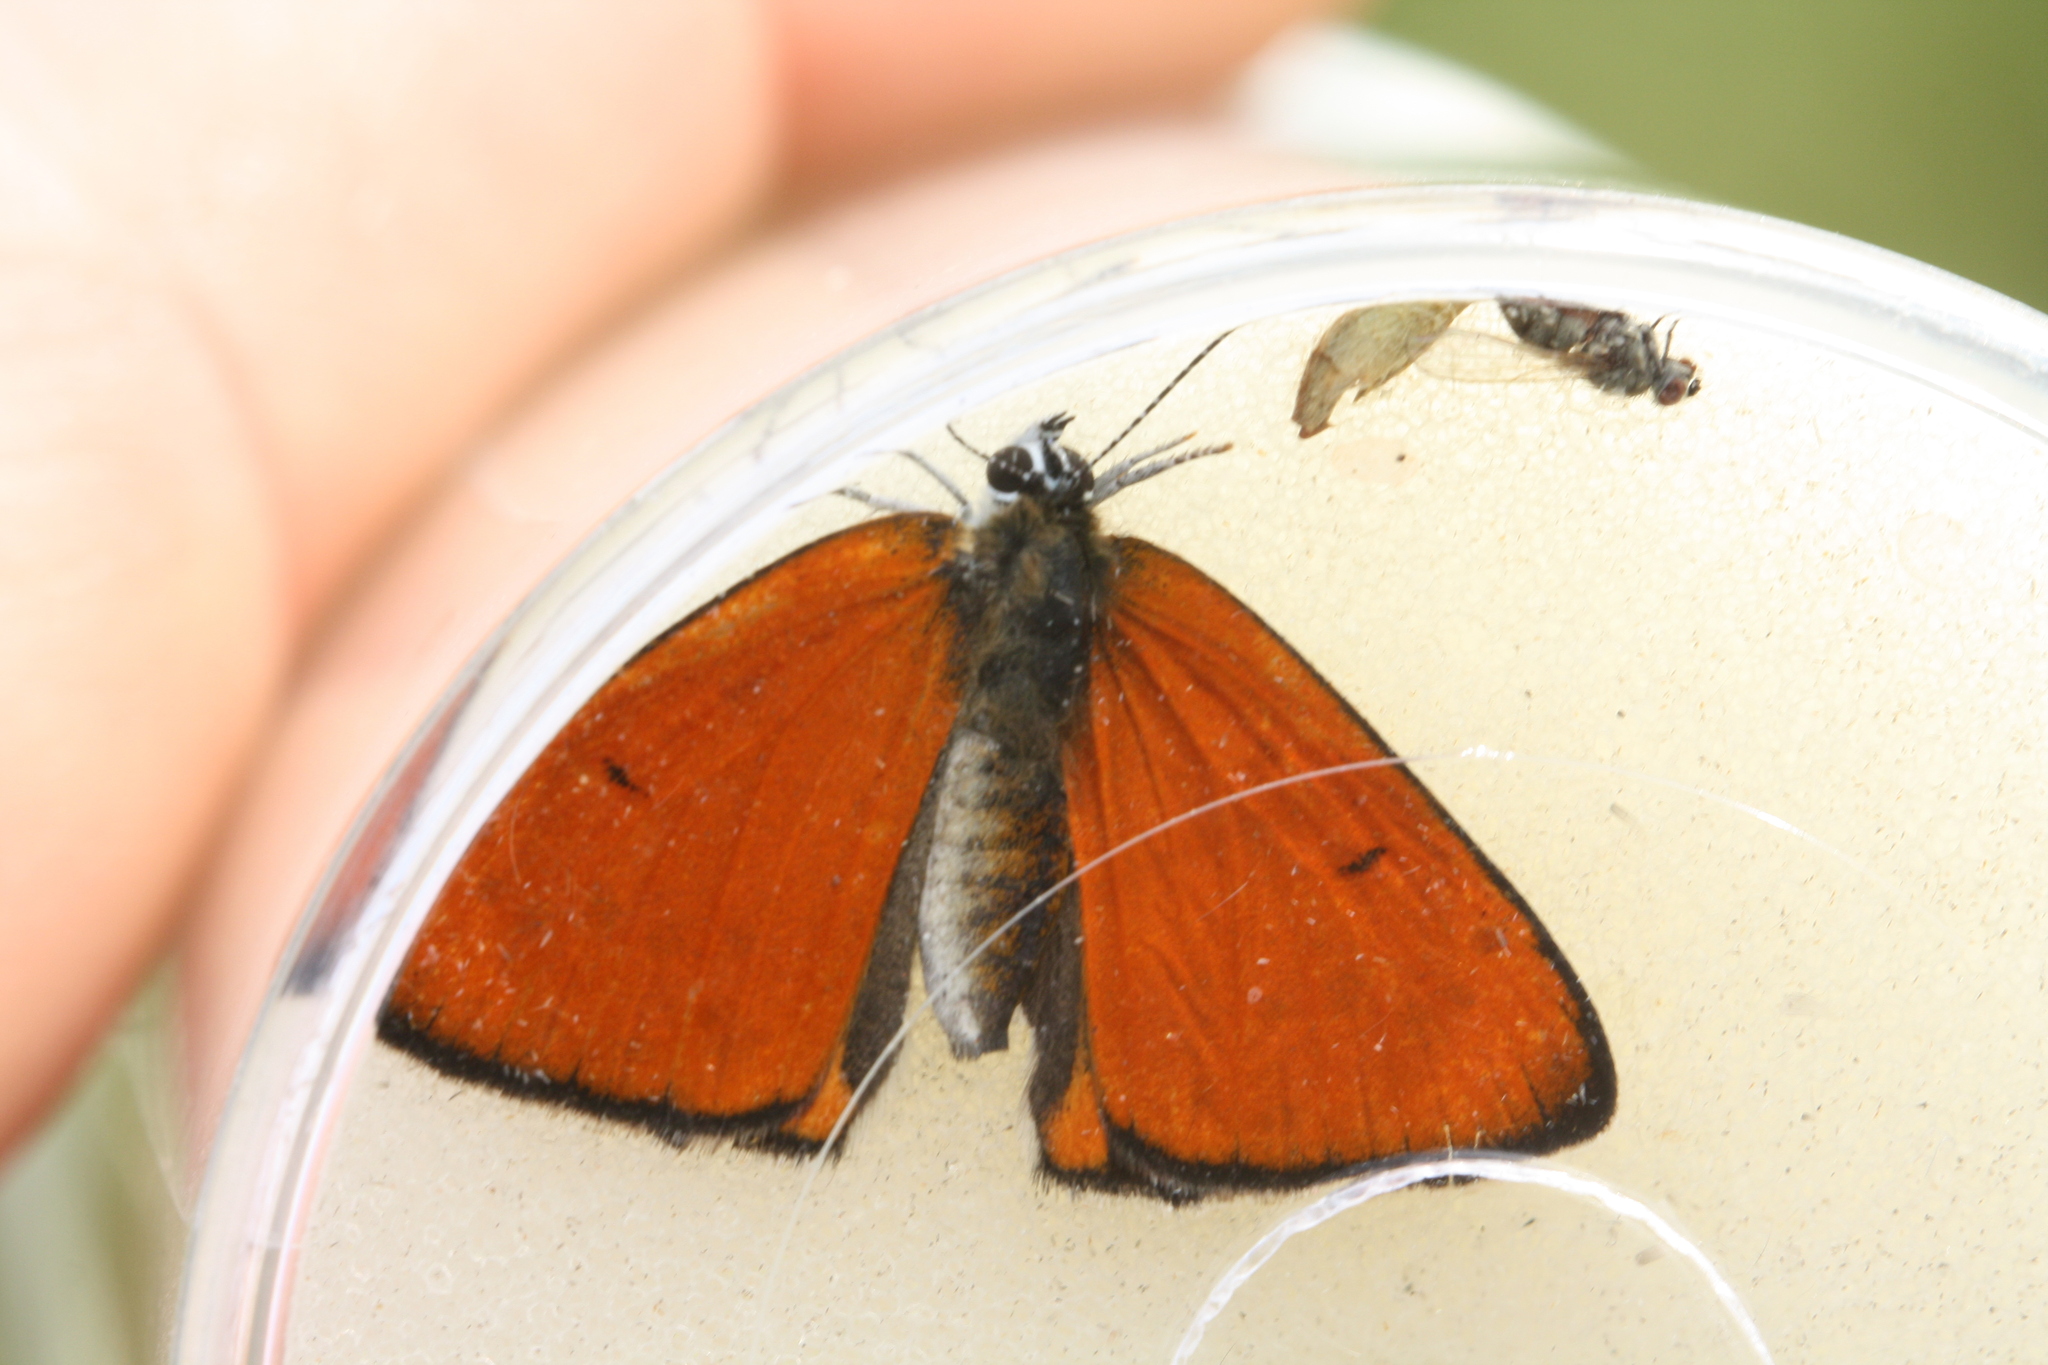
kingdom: Animalia
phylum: Arthropoda
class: Insecta
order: Lepidoptera
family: Lycaenidae
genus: Lycaena
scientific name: Lycaena dispar
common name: Large copper
